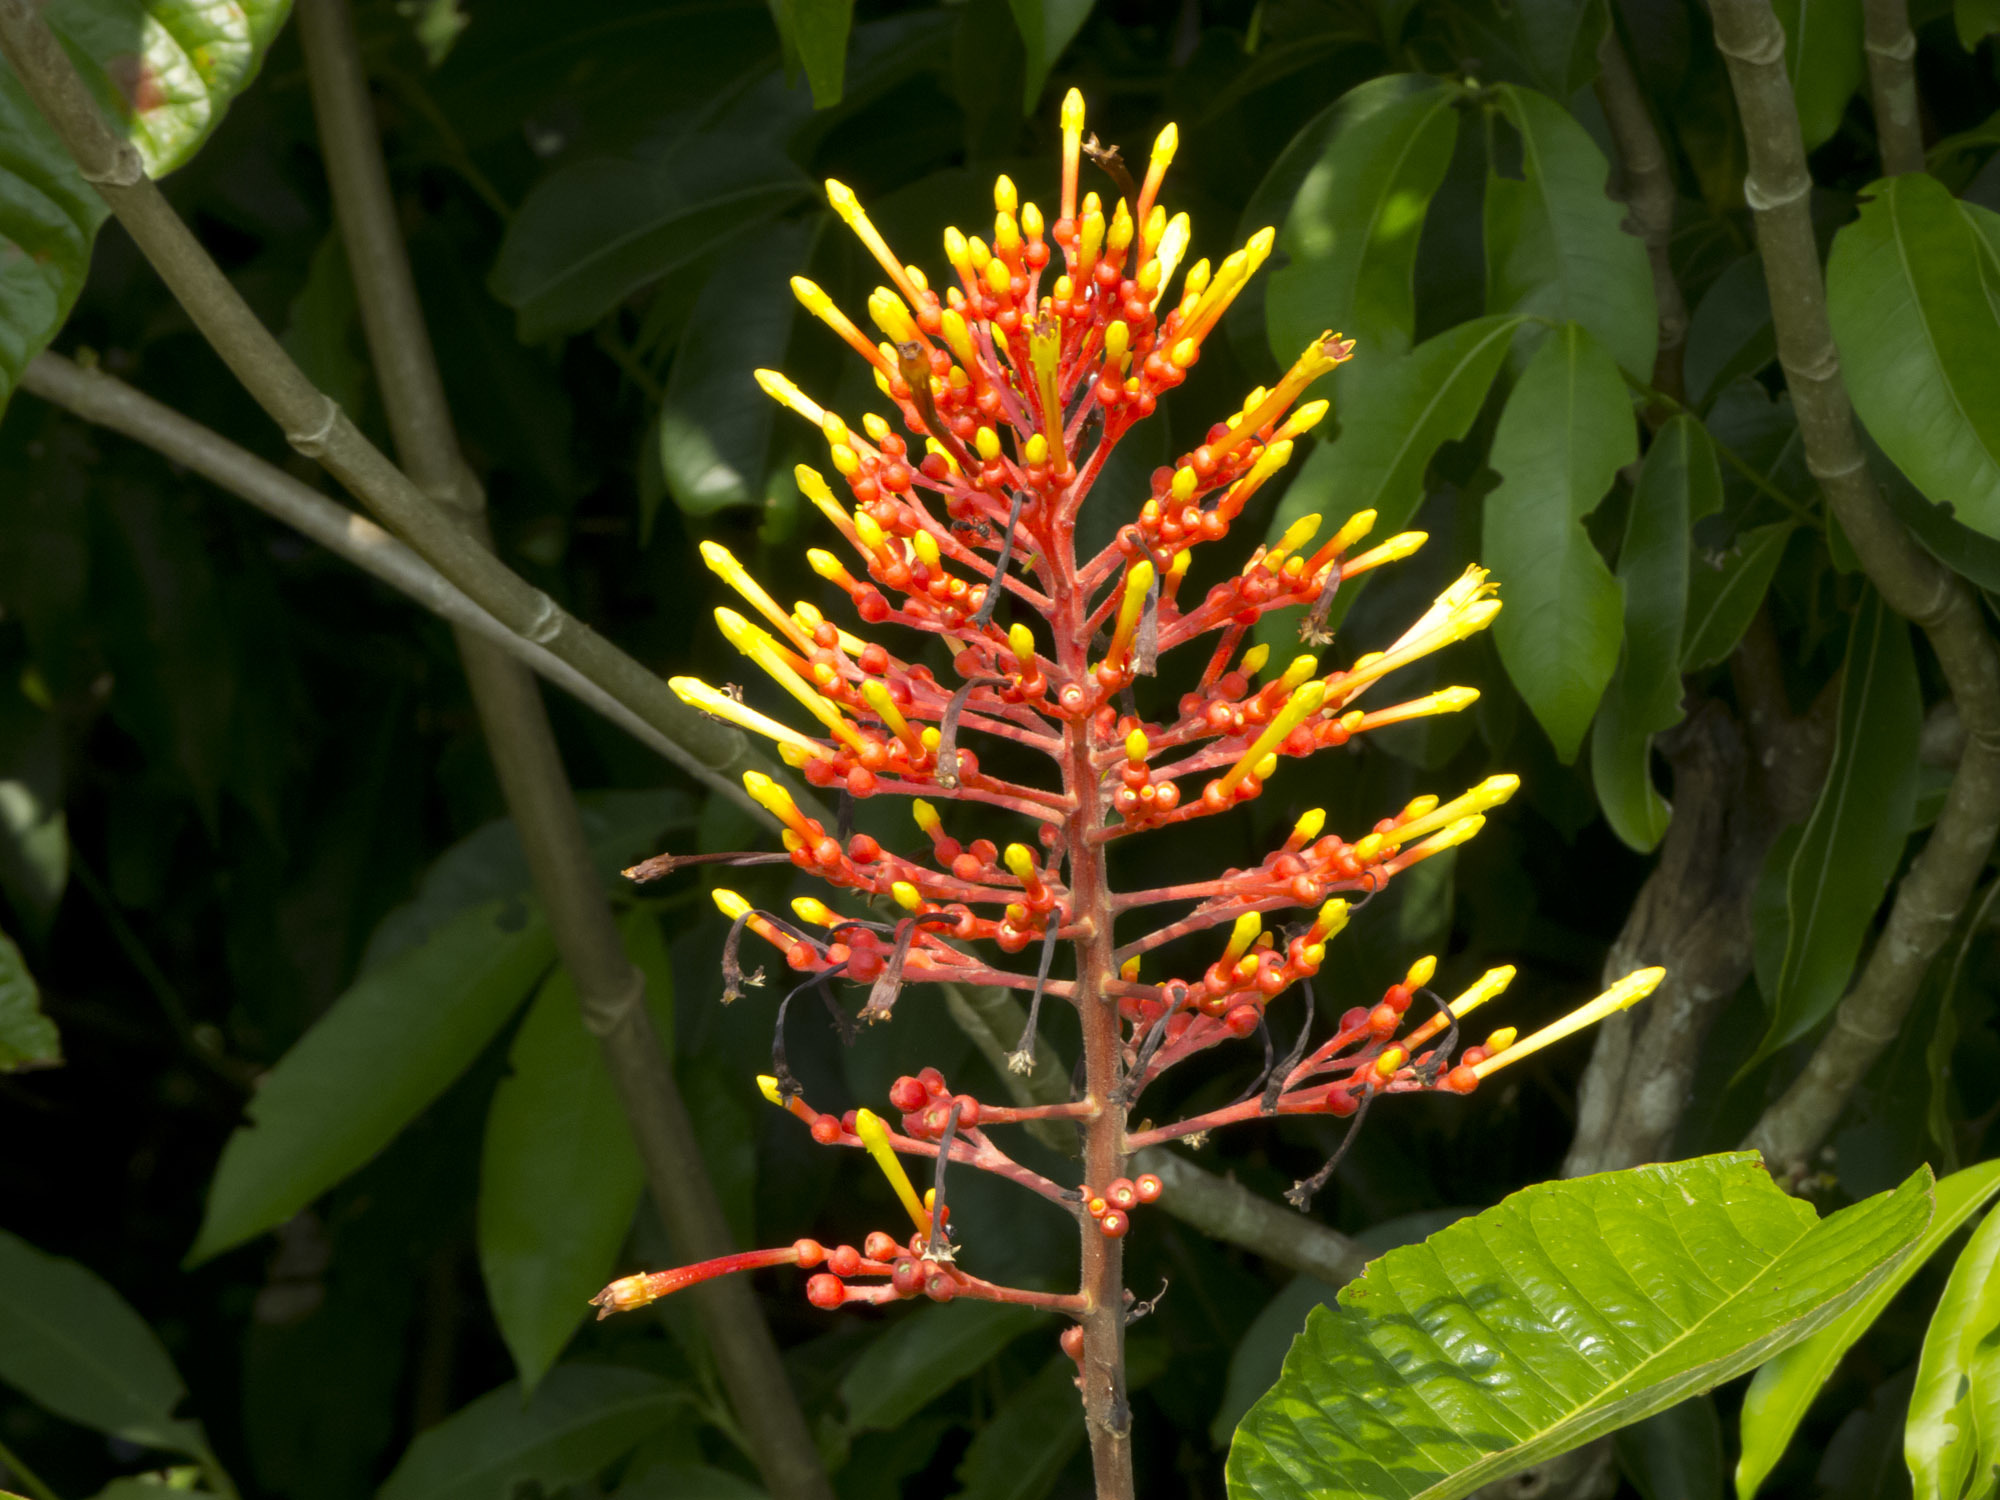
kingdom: Plantae
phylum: Tracheophyta
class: Magnoliopsida
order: Gentianales
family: Rubiaceae
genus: Isertia
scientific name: Isertia haenkeana
